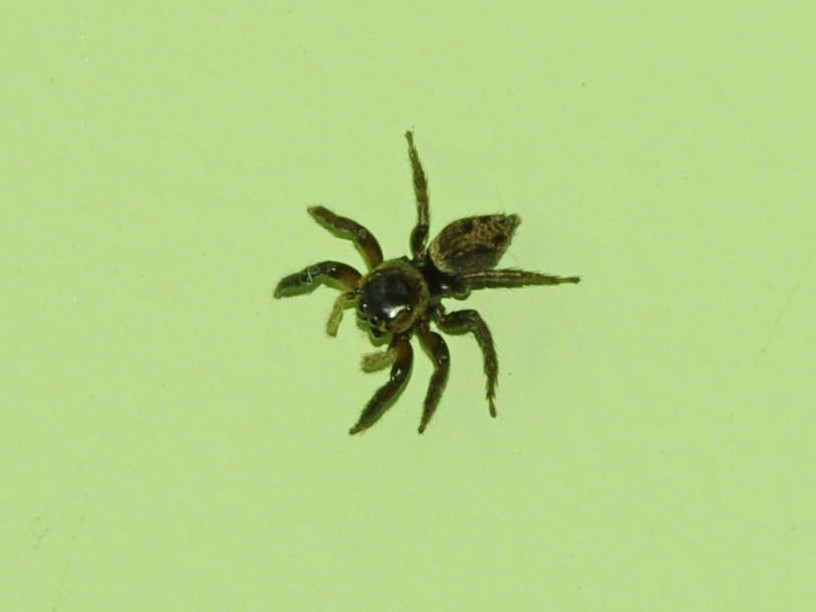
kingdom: Animalia
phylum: Arthropoda
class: Arachnida
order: Araneae
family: Salticidae
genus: Hasarius
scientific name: Hasarius adansoni
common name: Jumping spider
